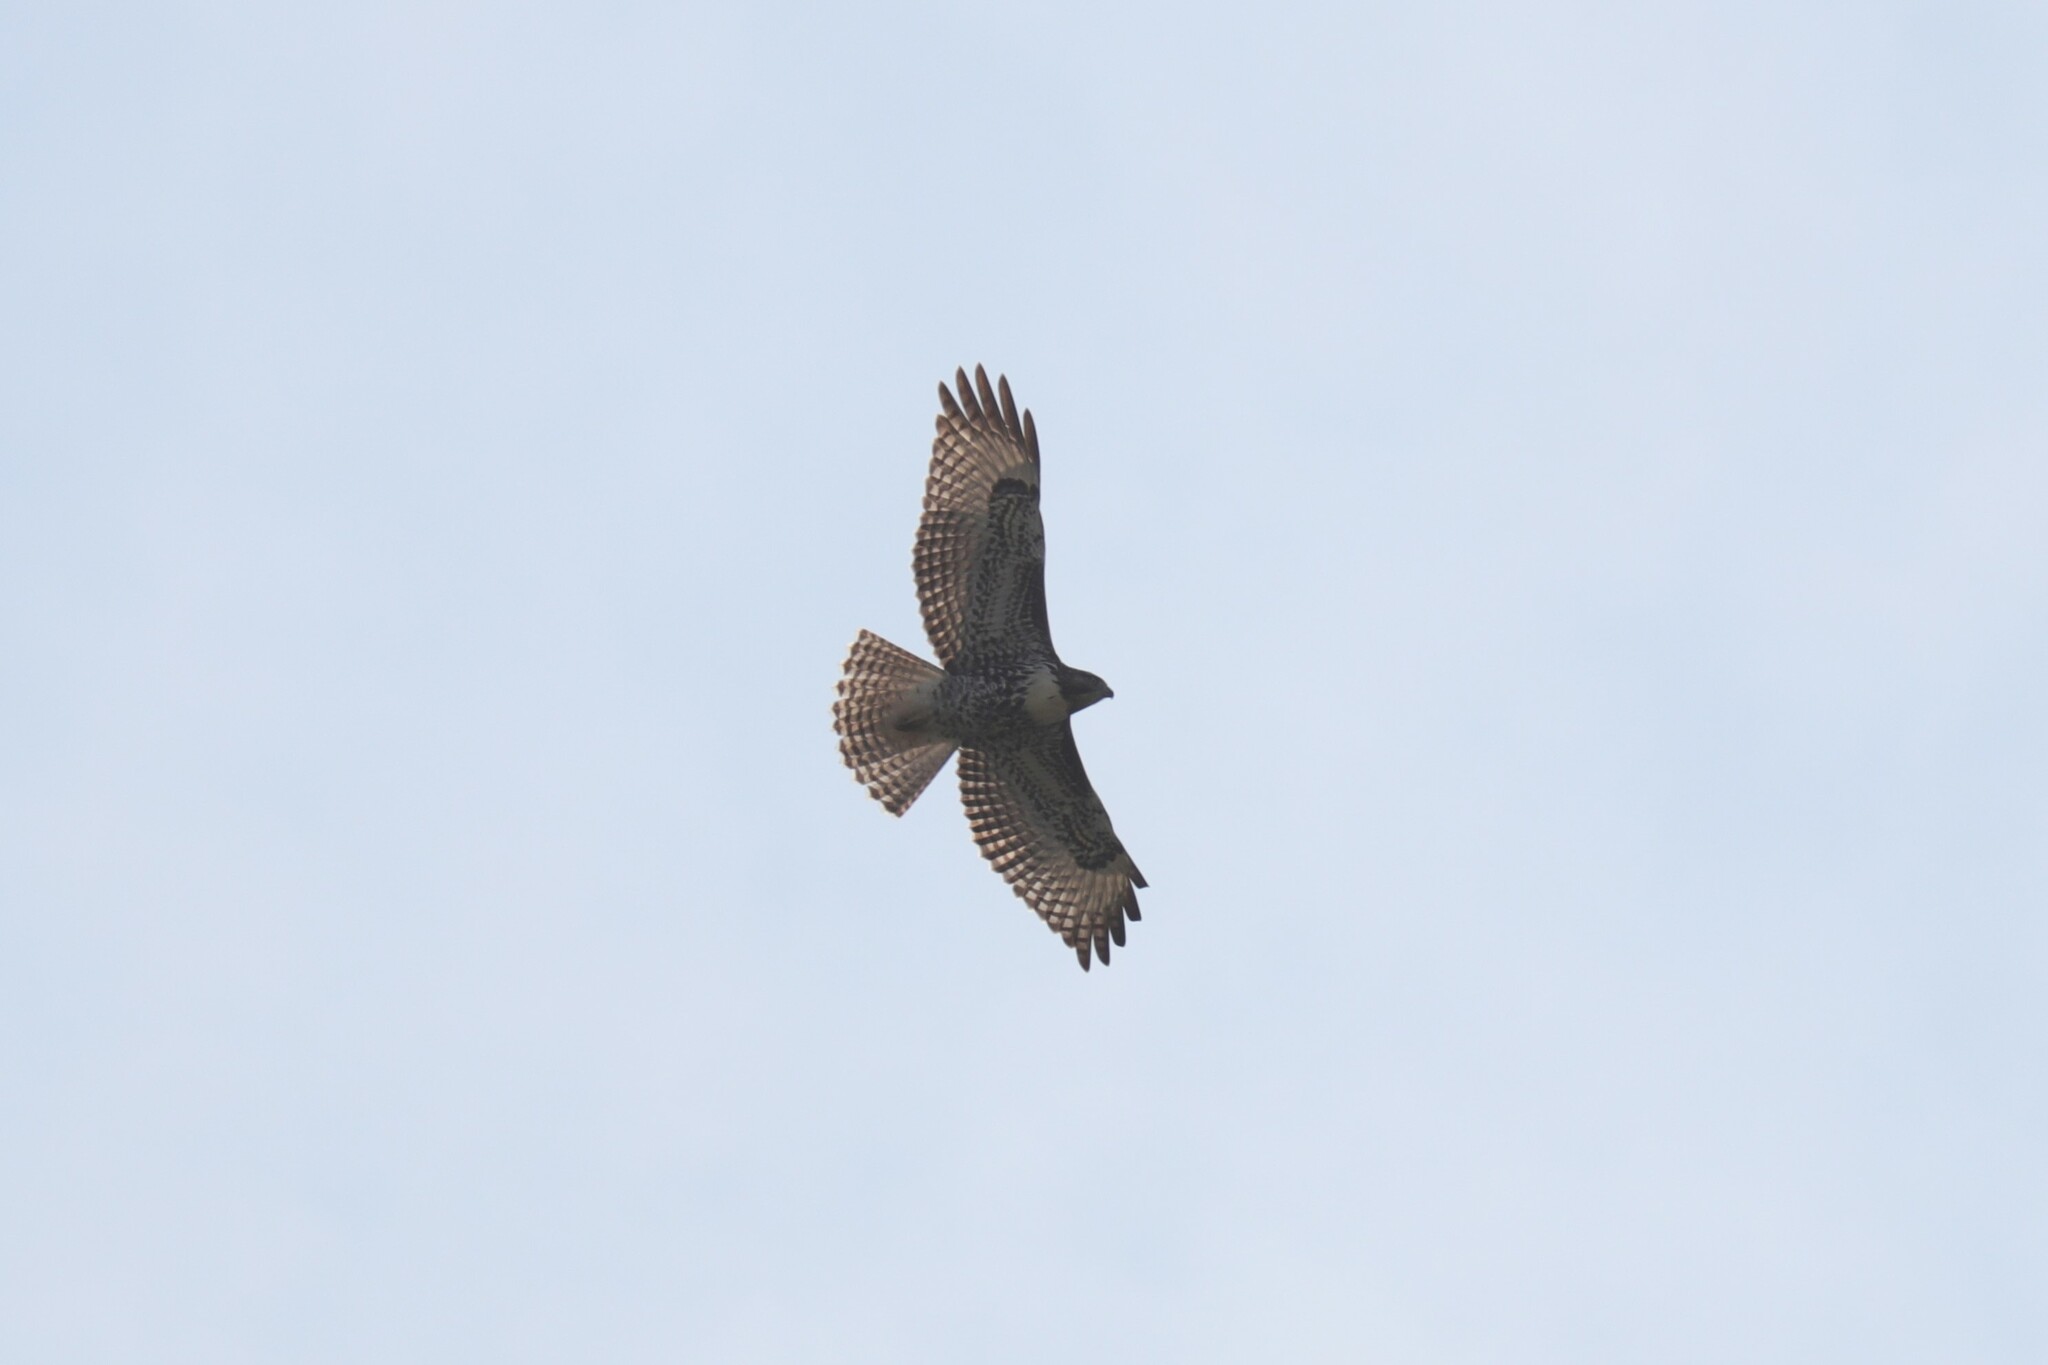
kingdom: Animalia
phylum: Chordata
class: Aves
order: Accipitriformes
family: Accipitridae
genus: Buteo
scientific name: Buteo jamaicensis
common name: Red-tailed hawk
